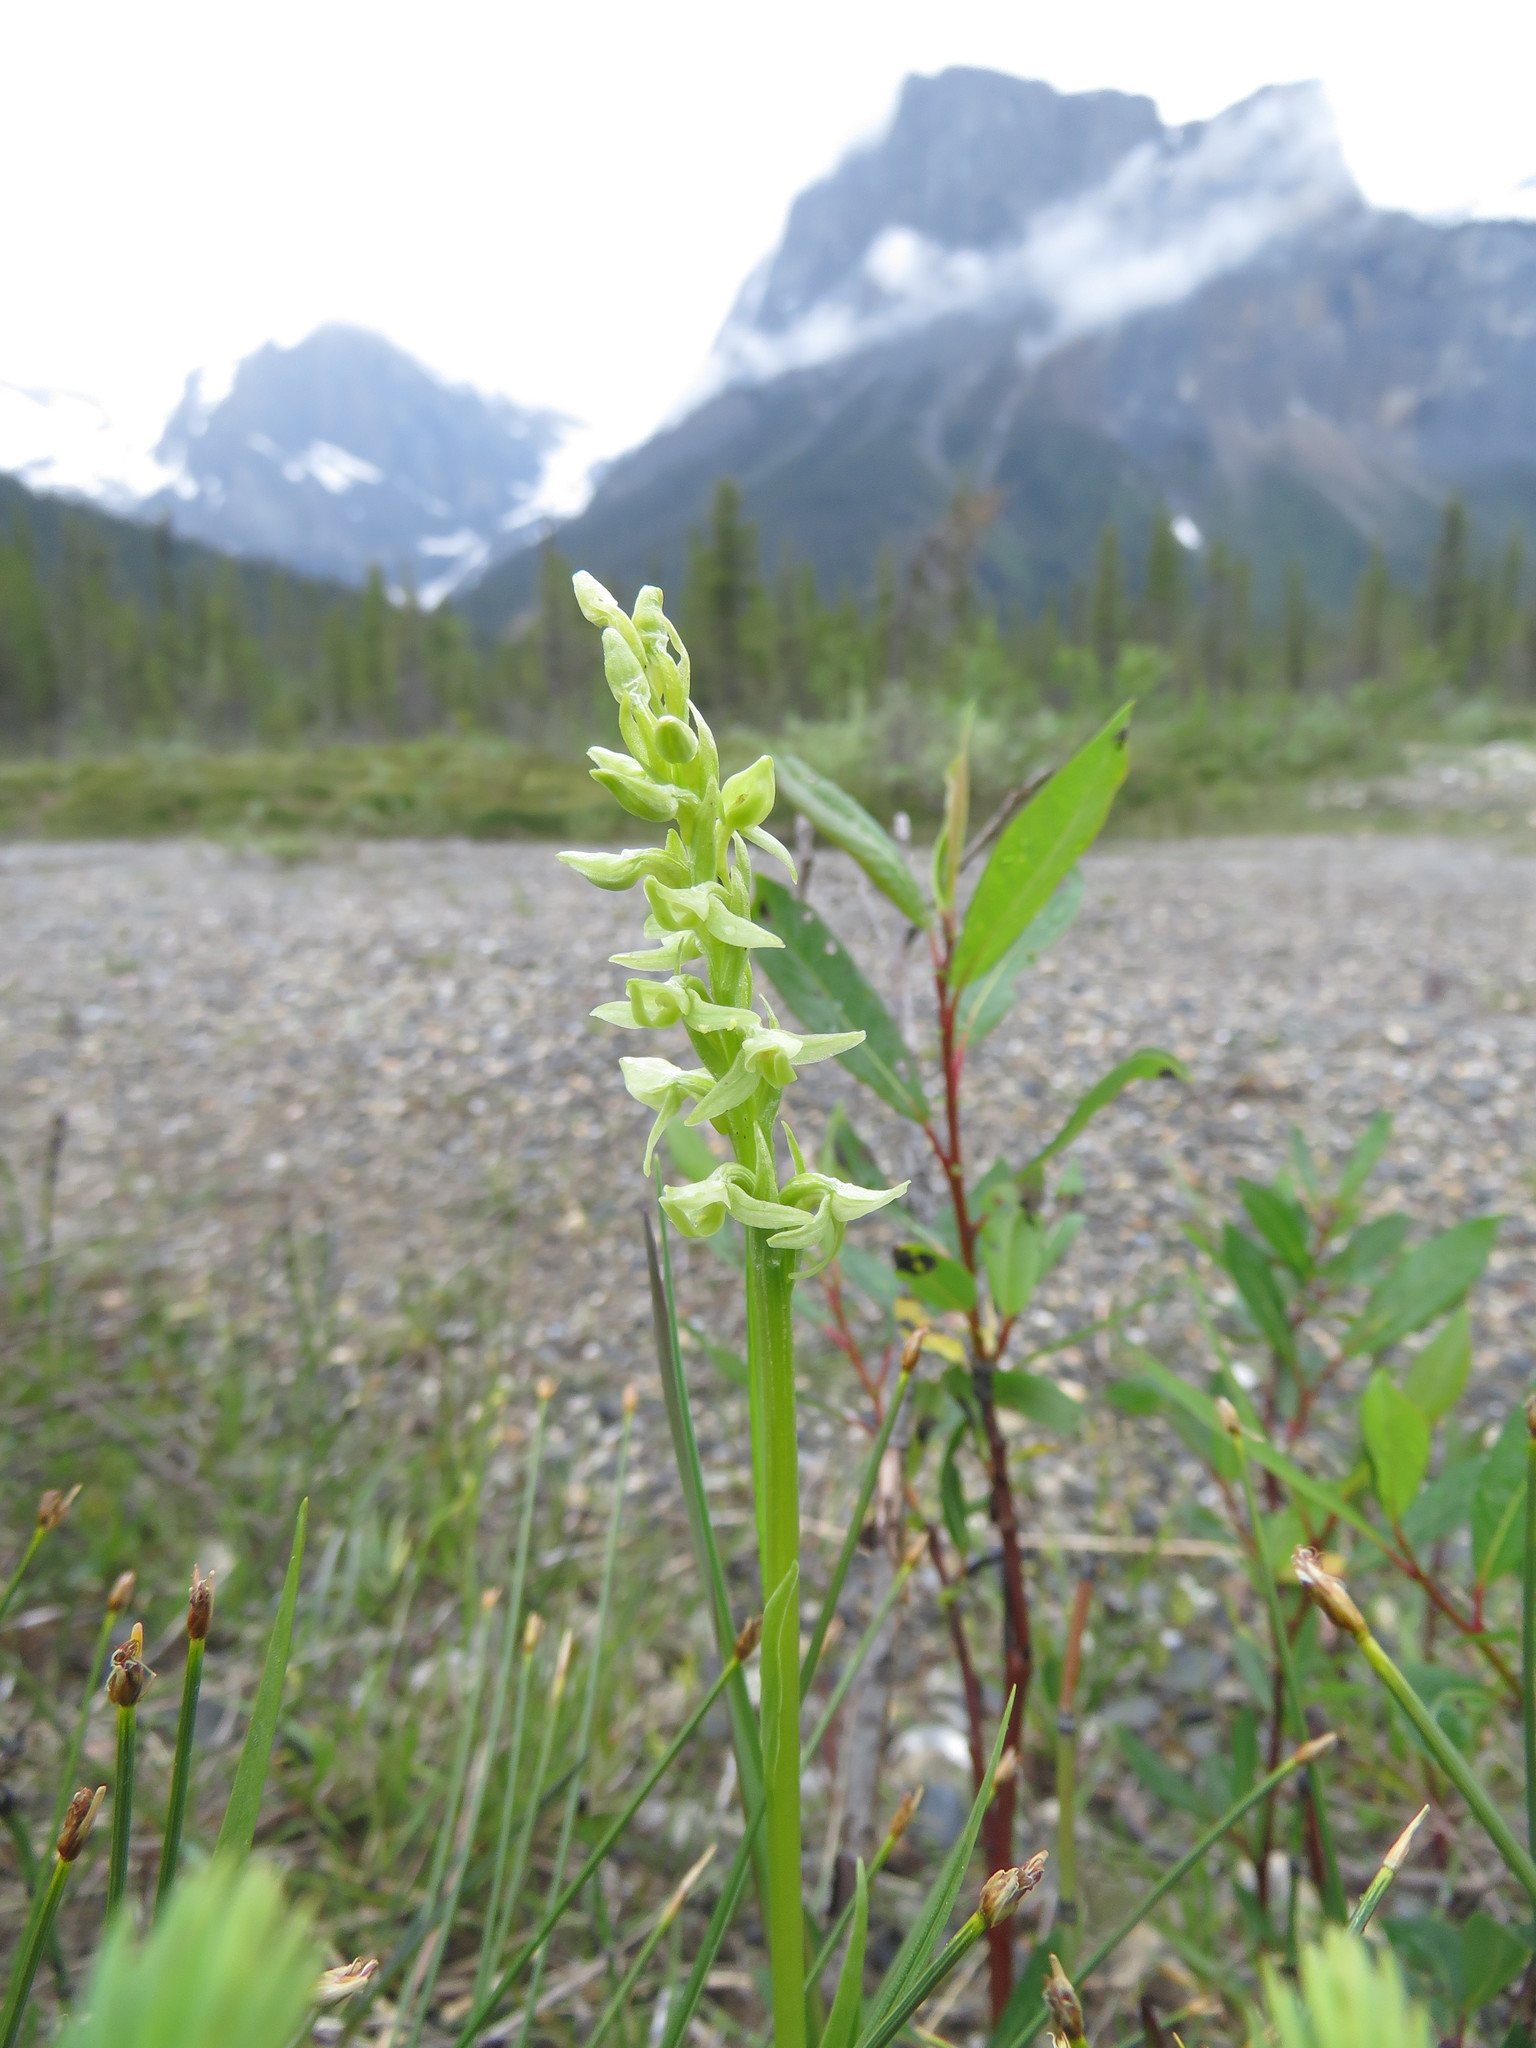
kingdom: Plantae
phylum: Tracheophyta
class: Liliopsida
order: Asparagales
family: Orchidaceae
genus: Platanthera
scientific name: Platanthera huronensis
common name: Fragrant green orchid
